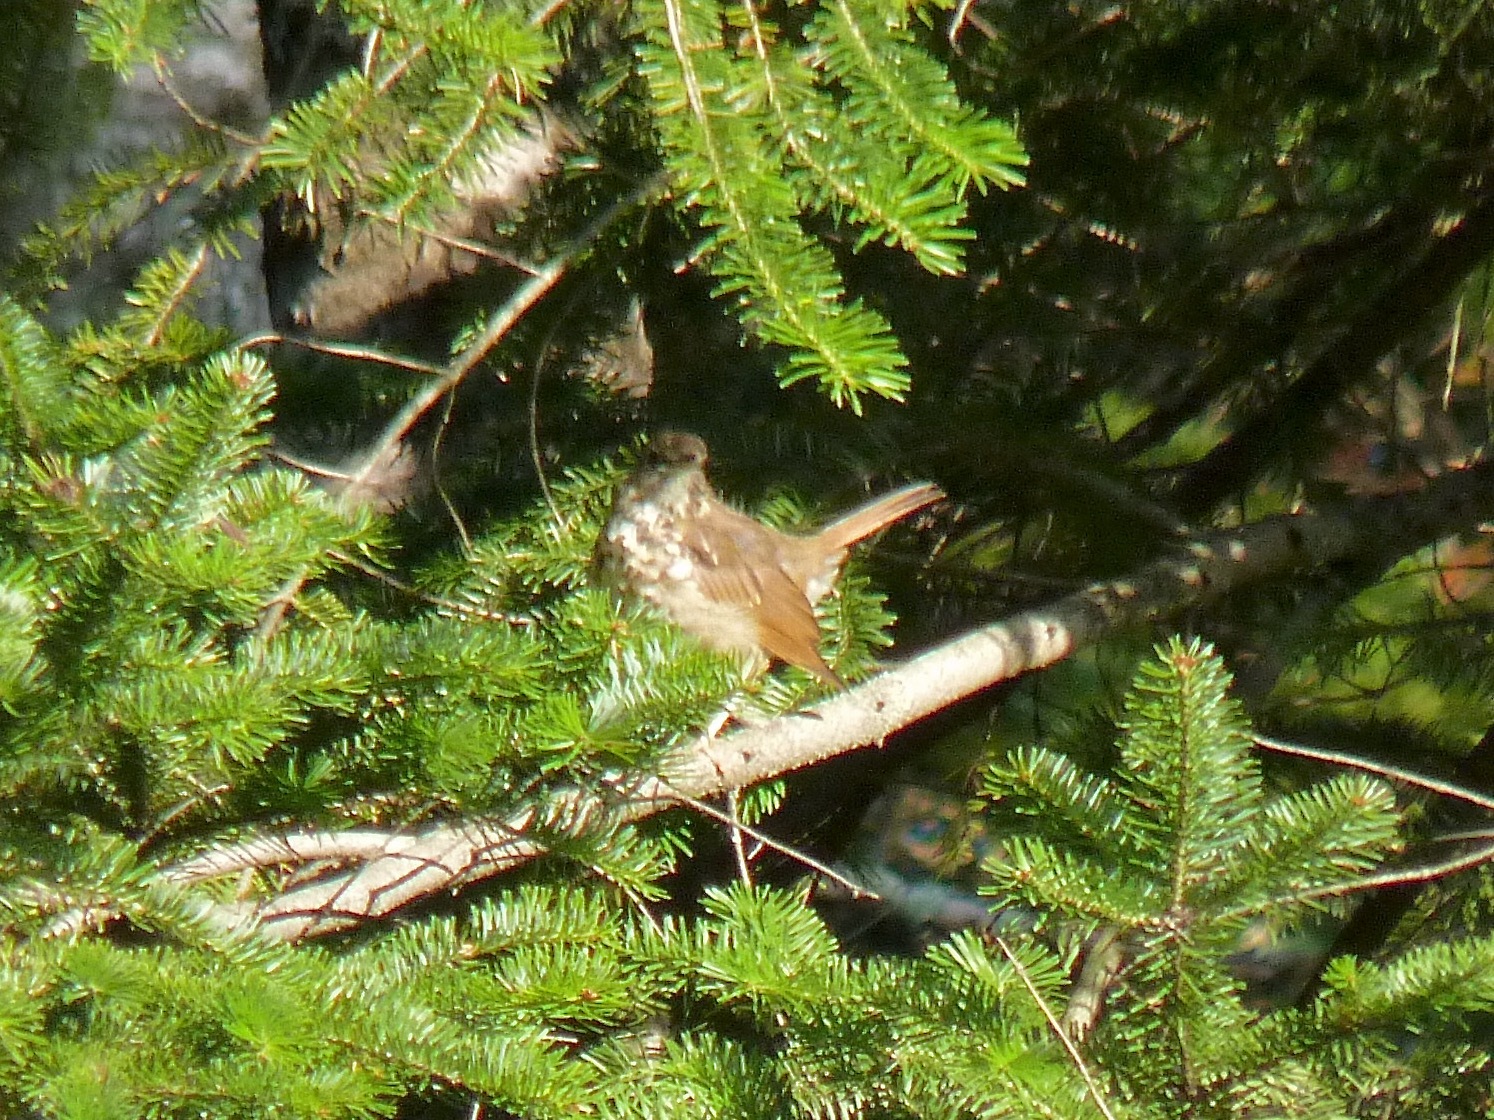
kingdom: Animalia
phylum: Chordata
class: Aves
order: Passeriformes
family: Turdidae
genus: Catharus
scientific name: Catharus guttatus
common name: Hermit thrush
